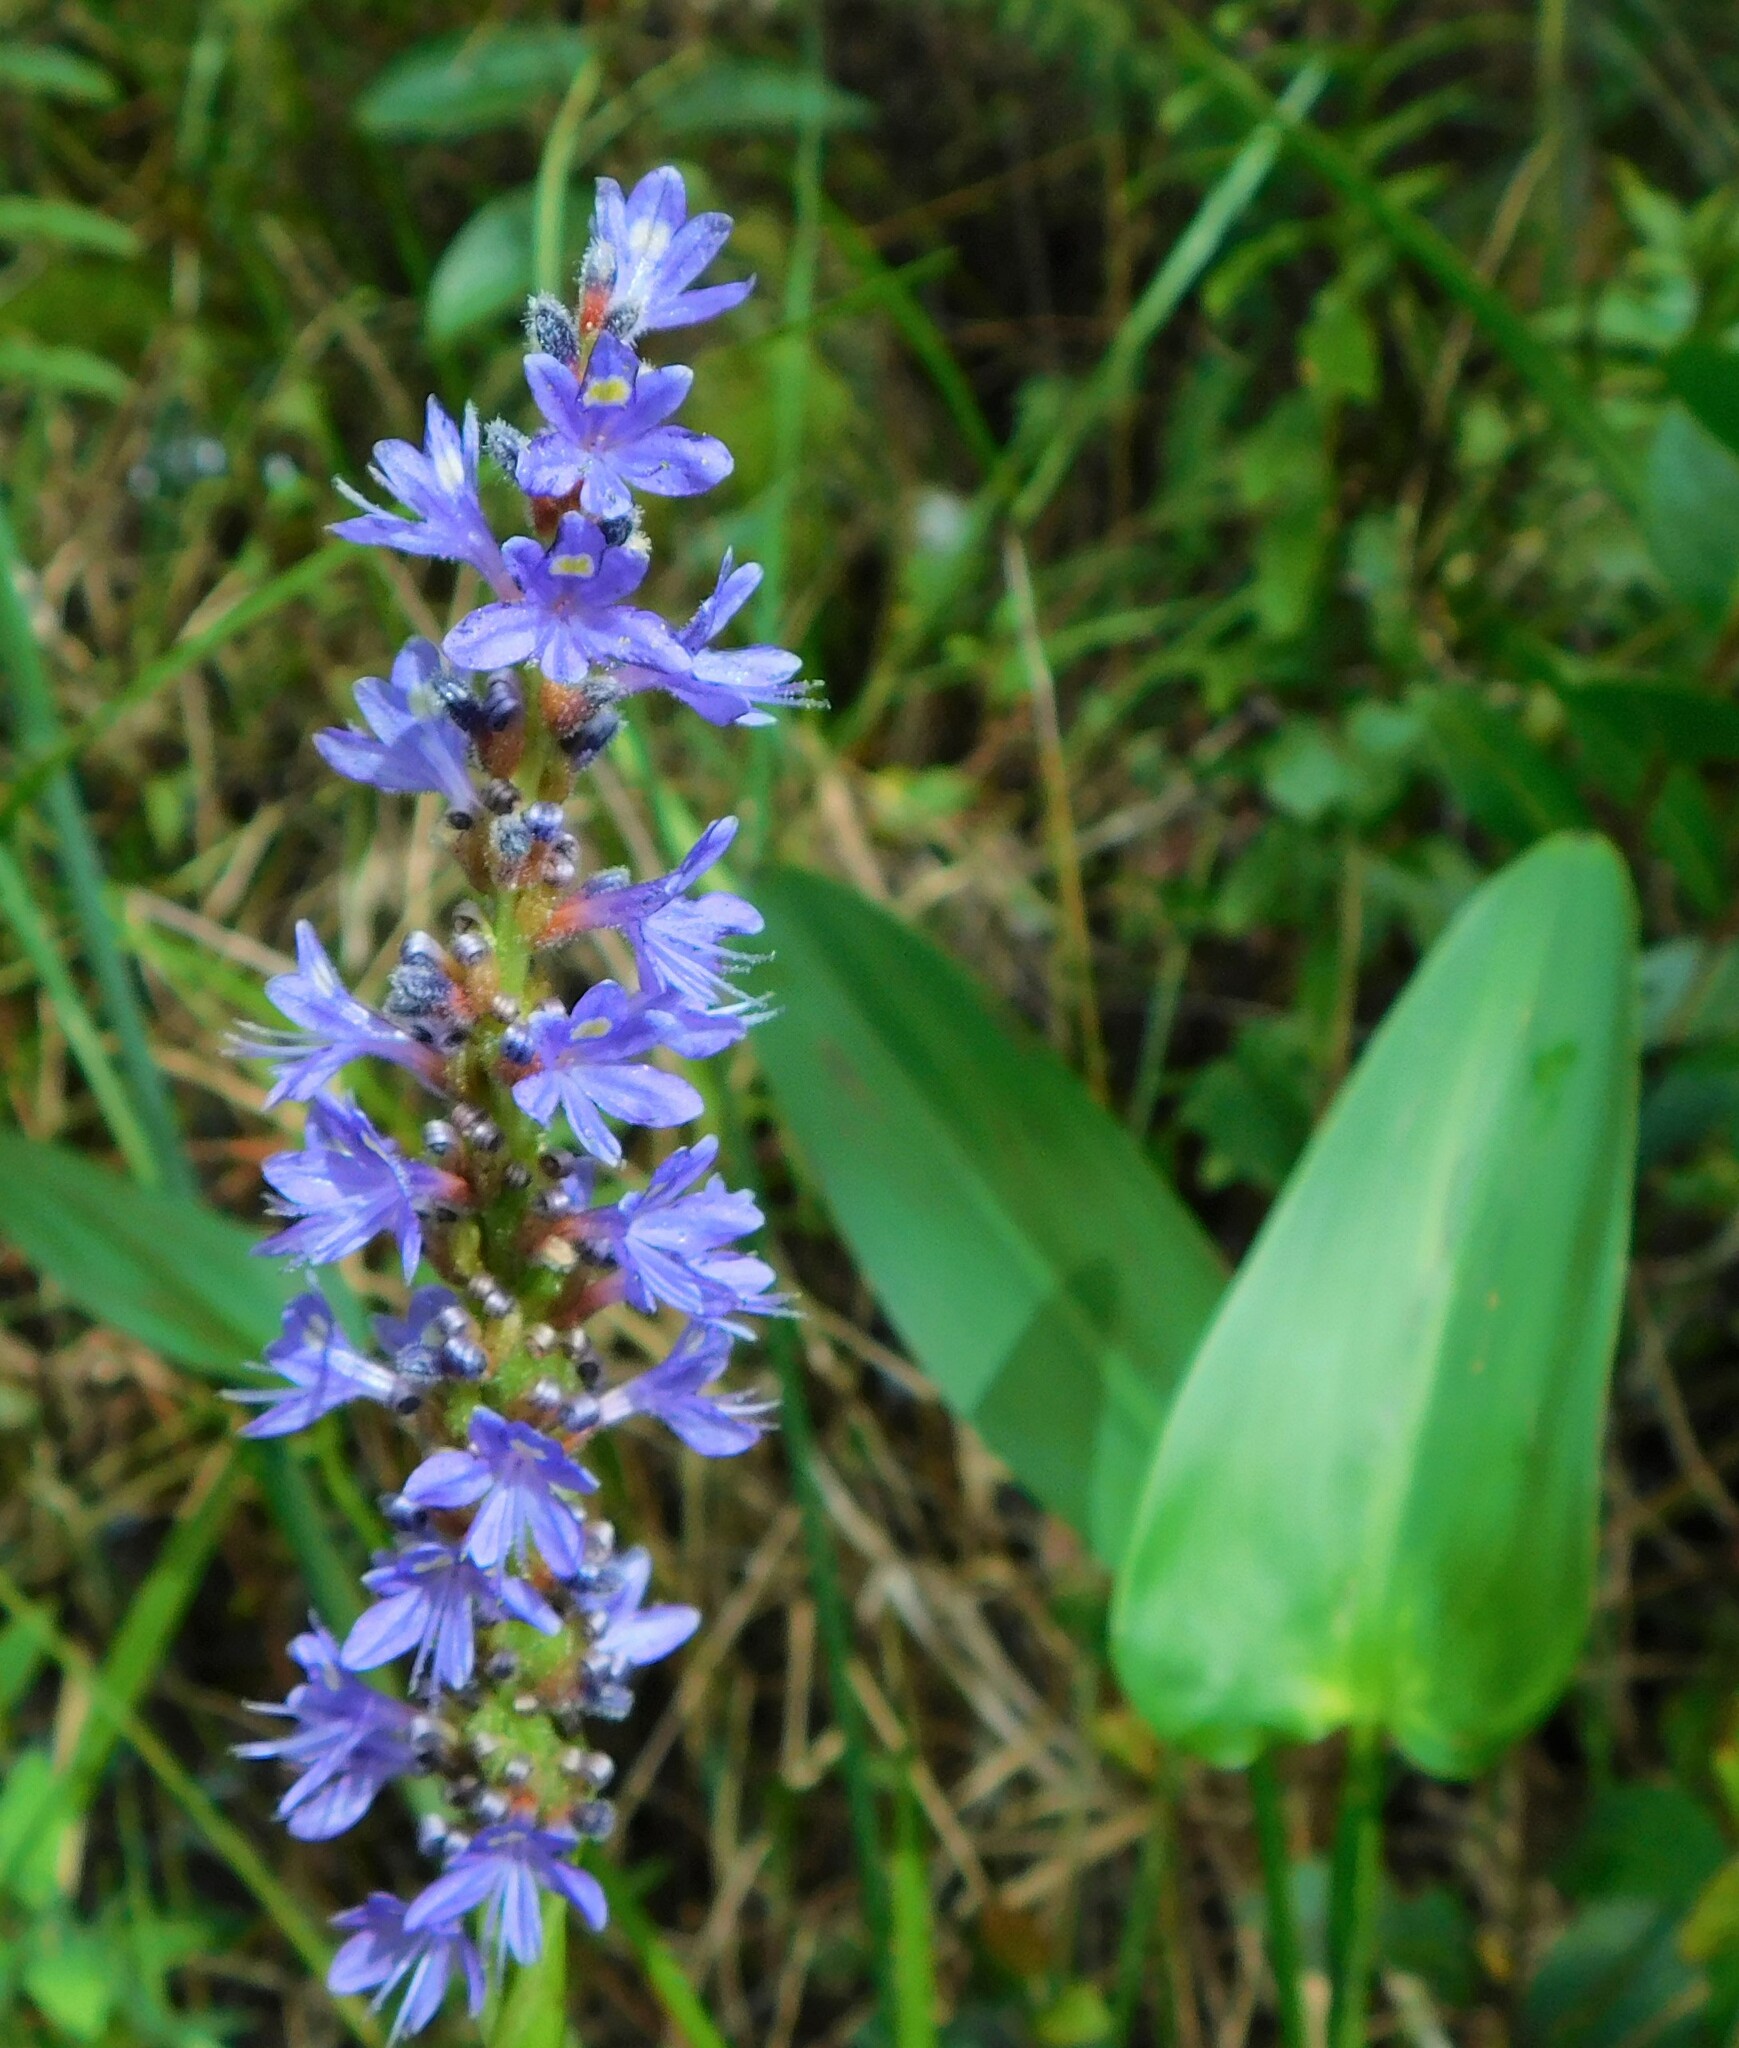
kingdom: Plantae
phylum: Tracheophyta
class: Liliopsida
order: Commelinales
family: Pontederiaceae
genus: Pontederia
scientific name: Pontederia cordata
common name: Pickerelweed
